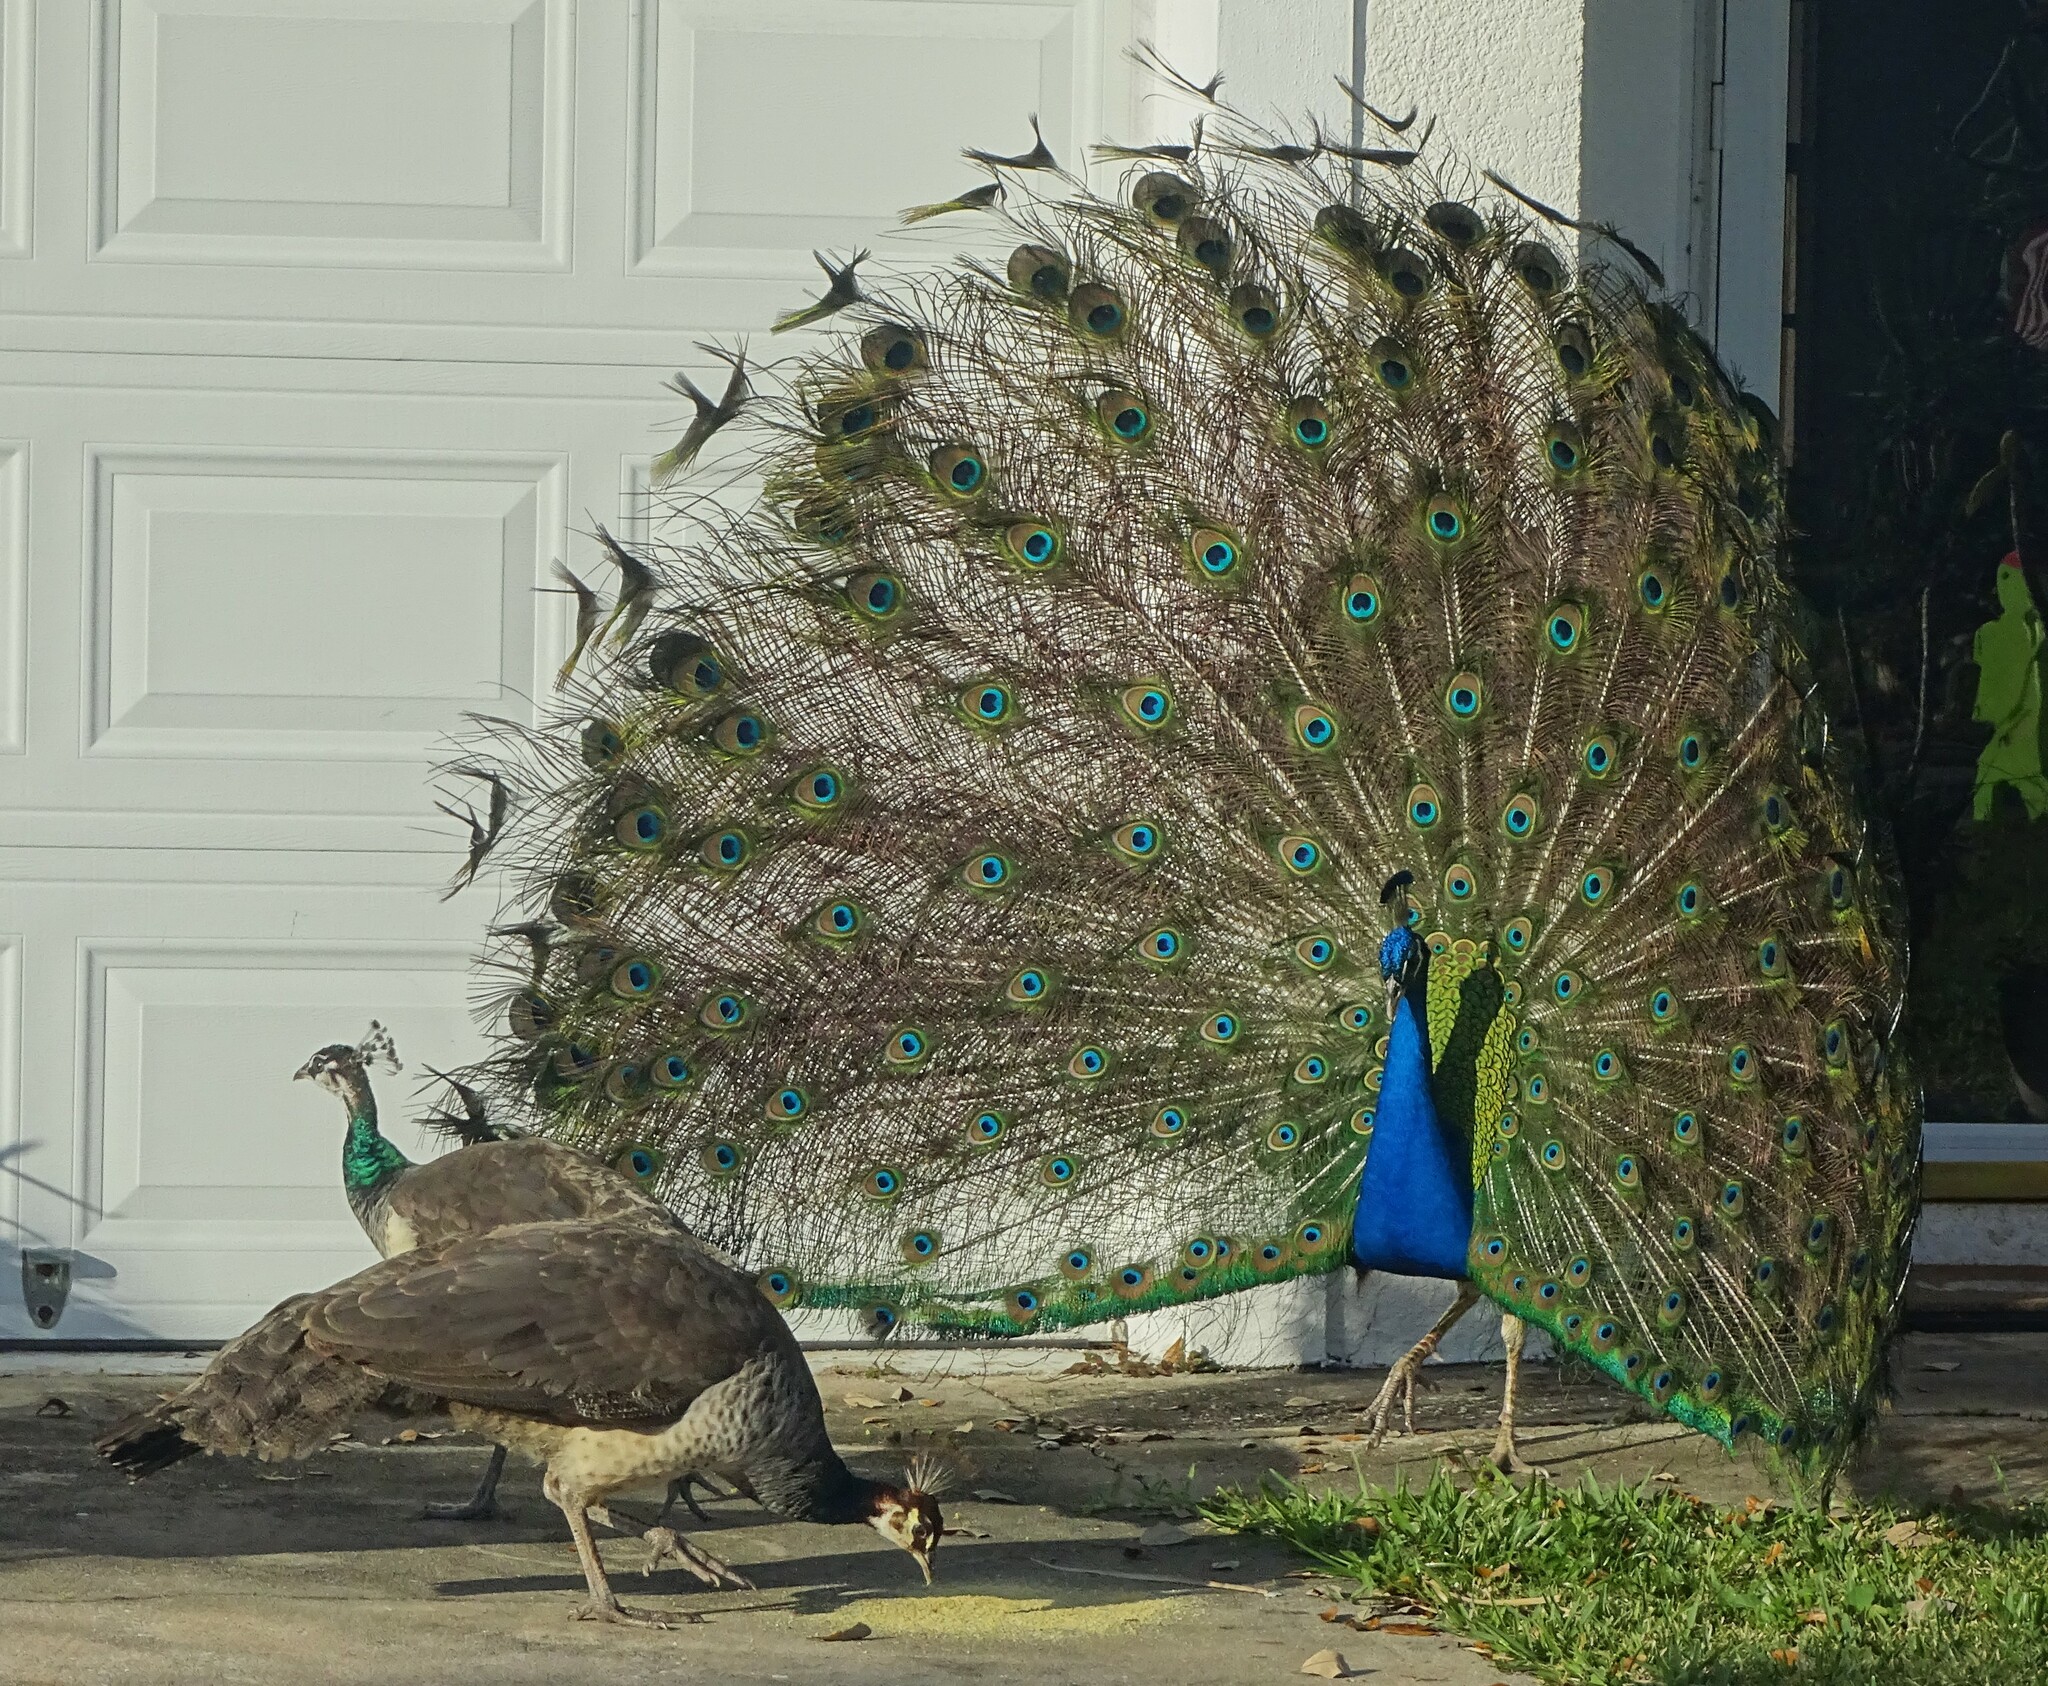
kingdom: Animalia
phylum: Chordata
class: Aves
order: Galliformes
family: Phasianidae
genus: Pavo
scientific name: Pavo cristatus
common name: Indian peafowl
